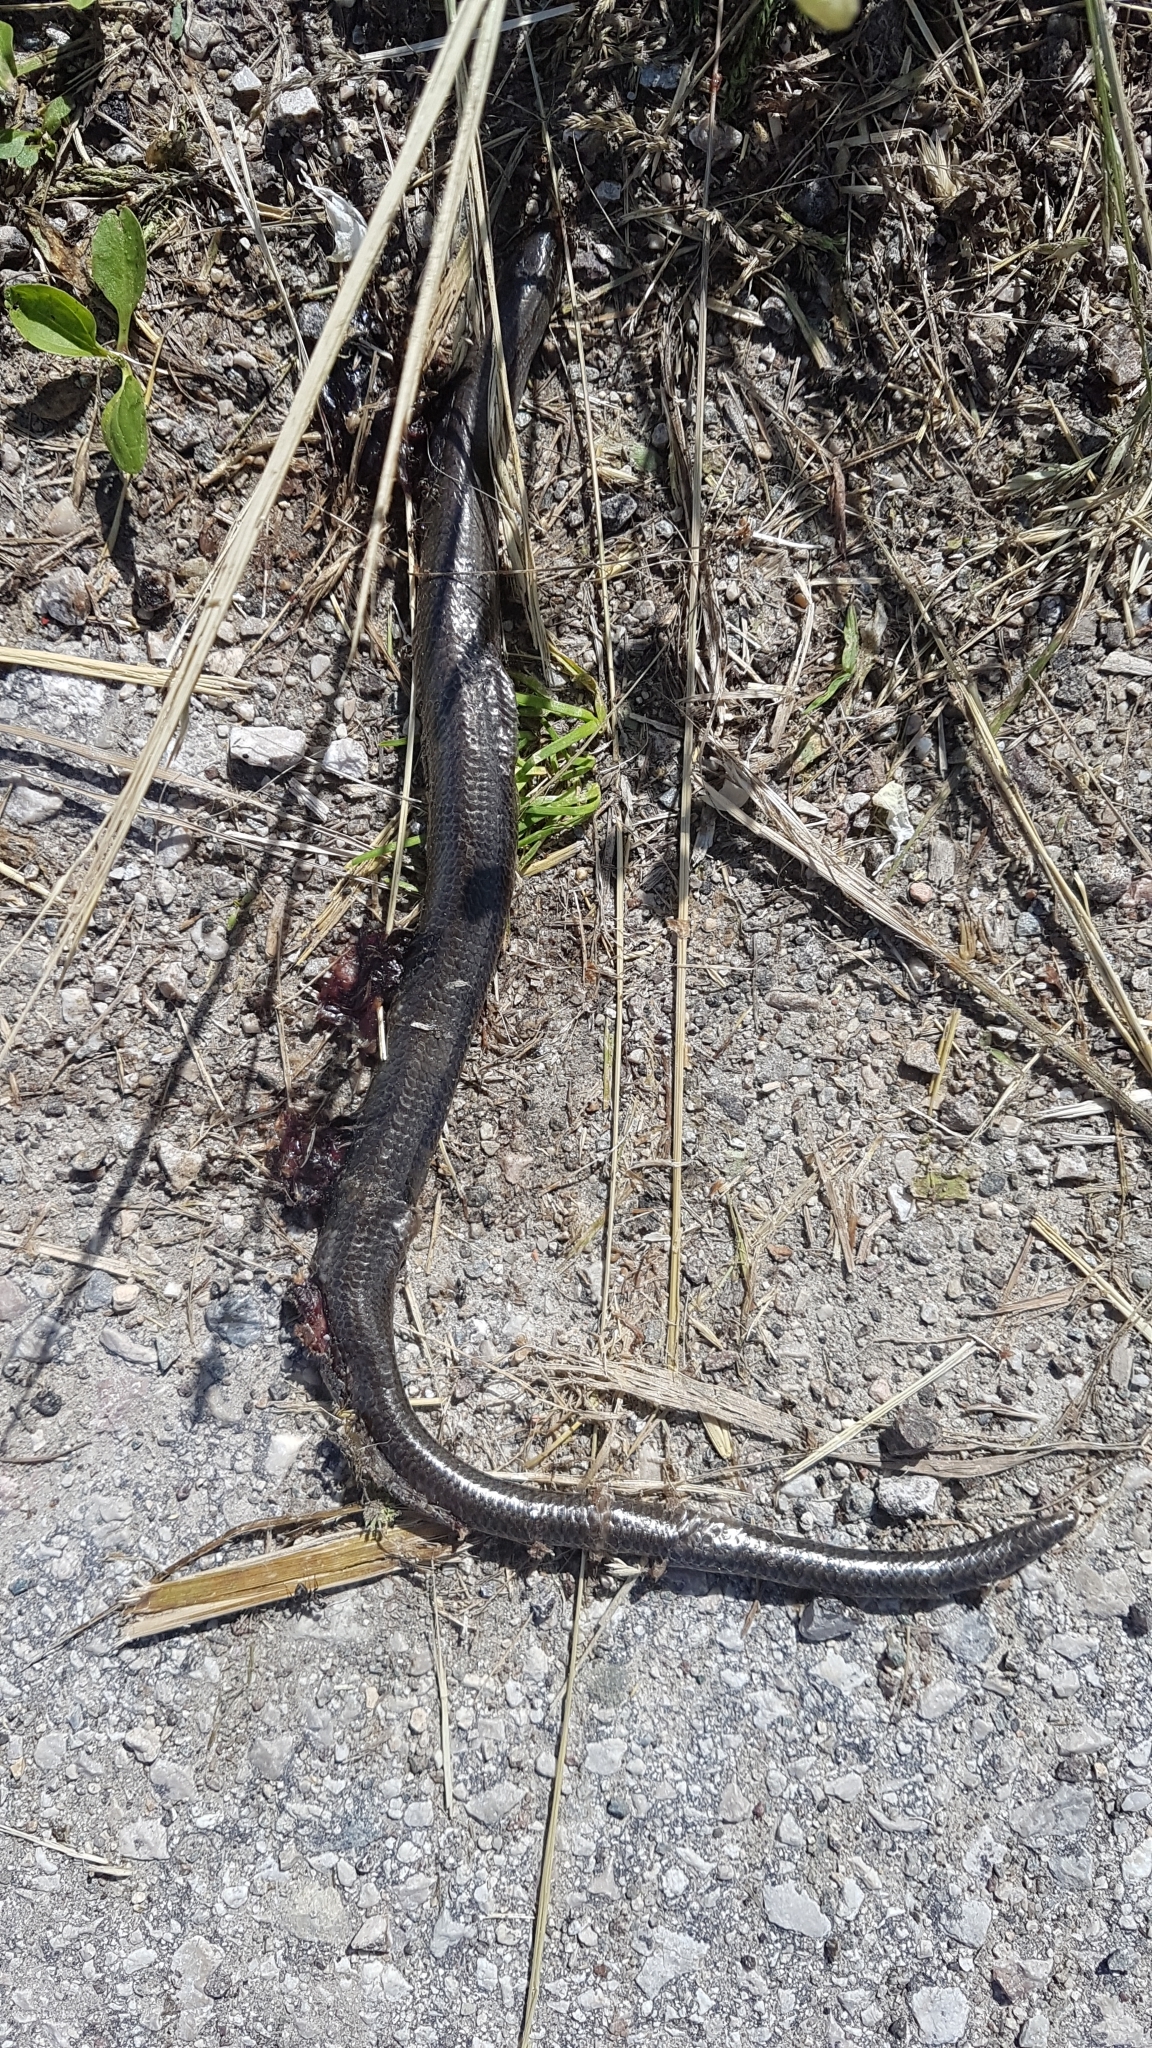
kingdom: Animalia
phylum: Chordata
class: Squamata
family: Anguidae
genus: Anguis
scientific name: Anguis veronensis
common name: Italian slow worm
